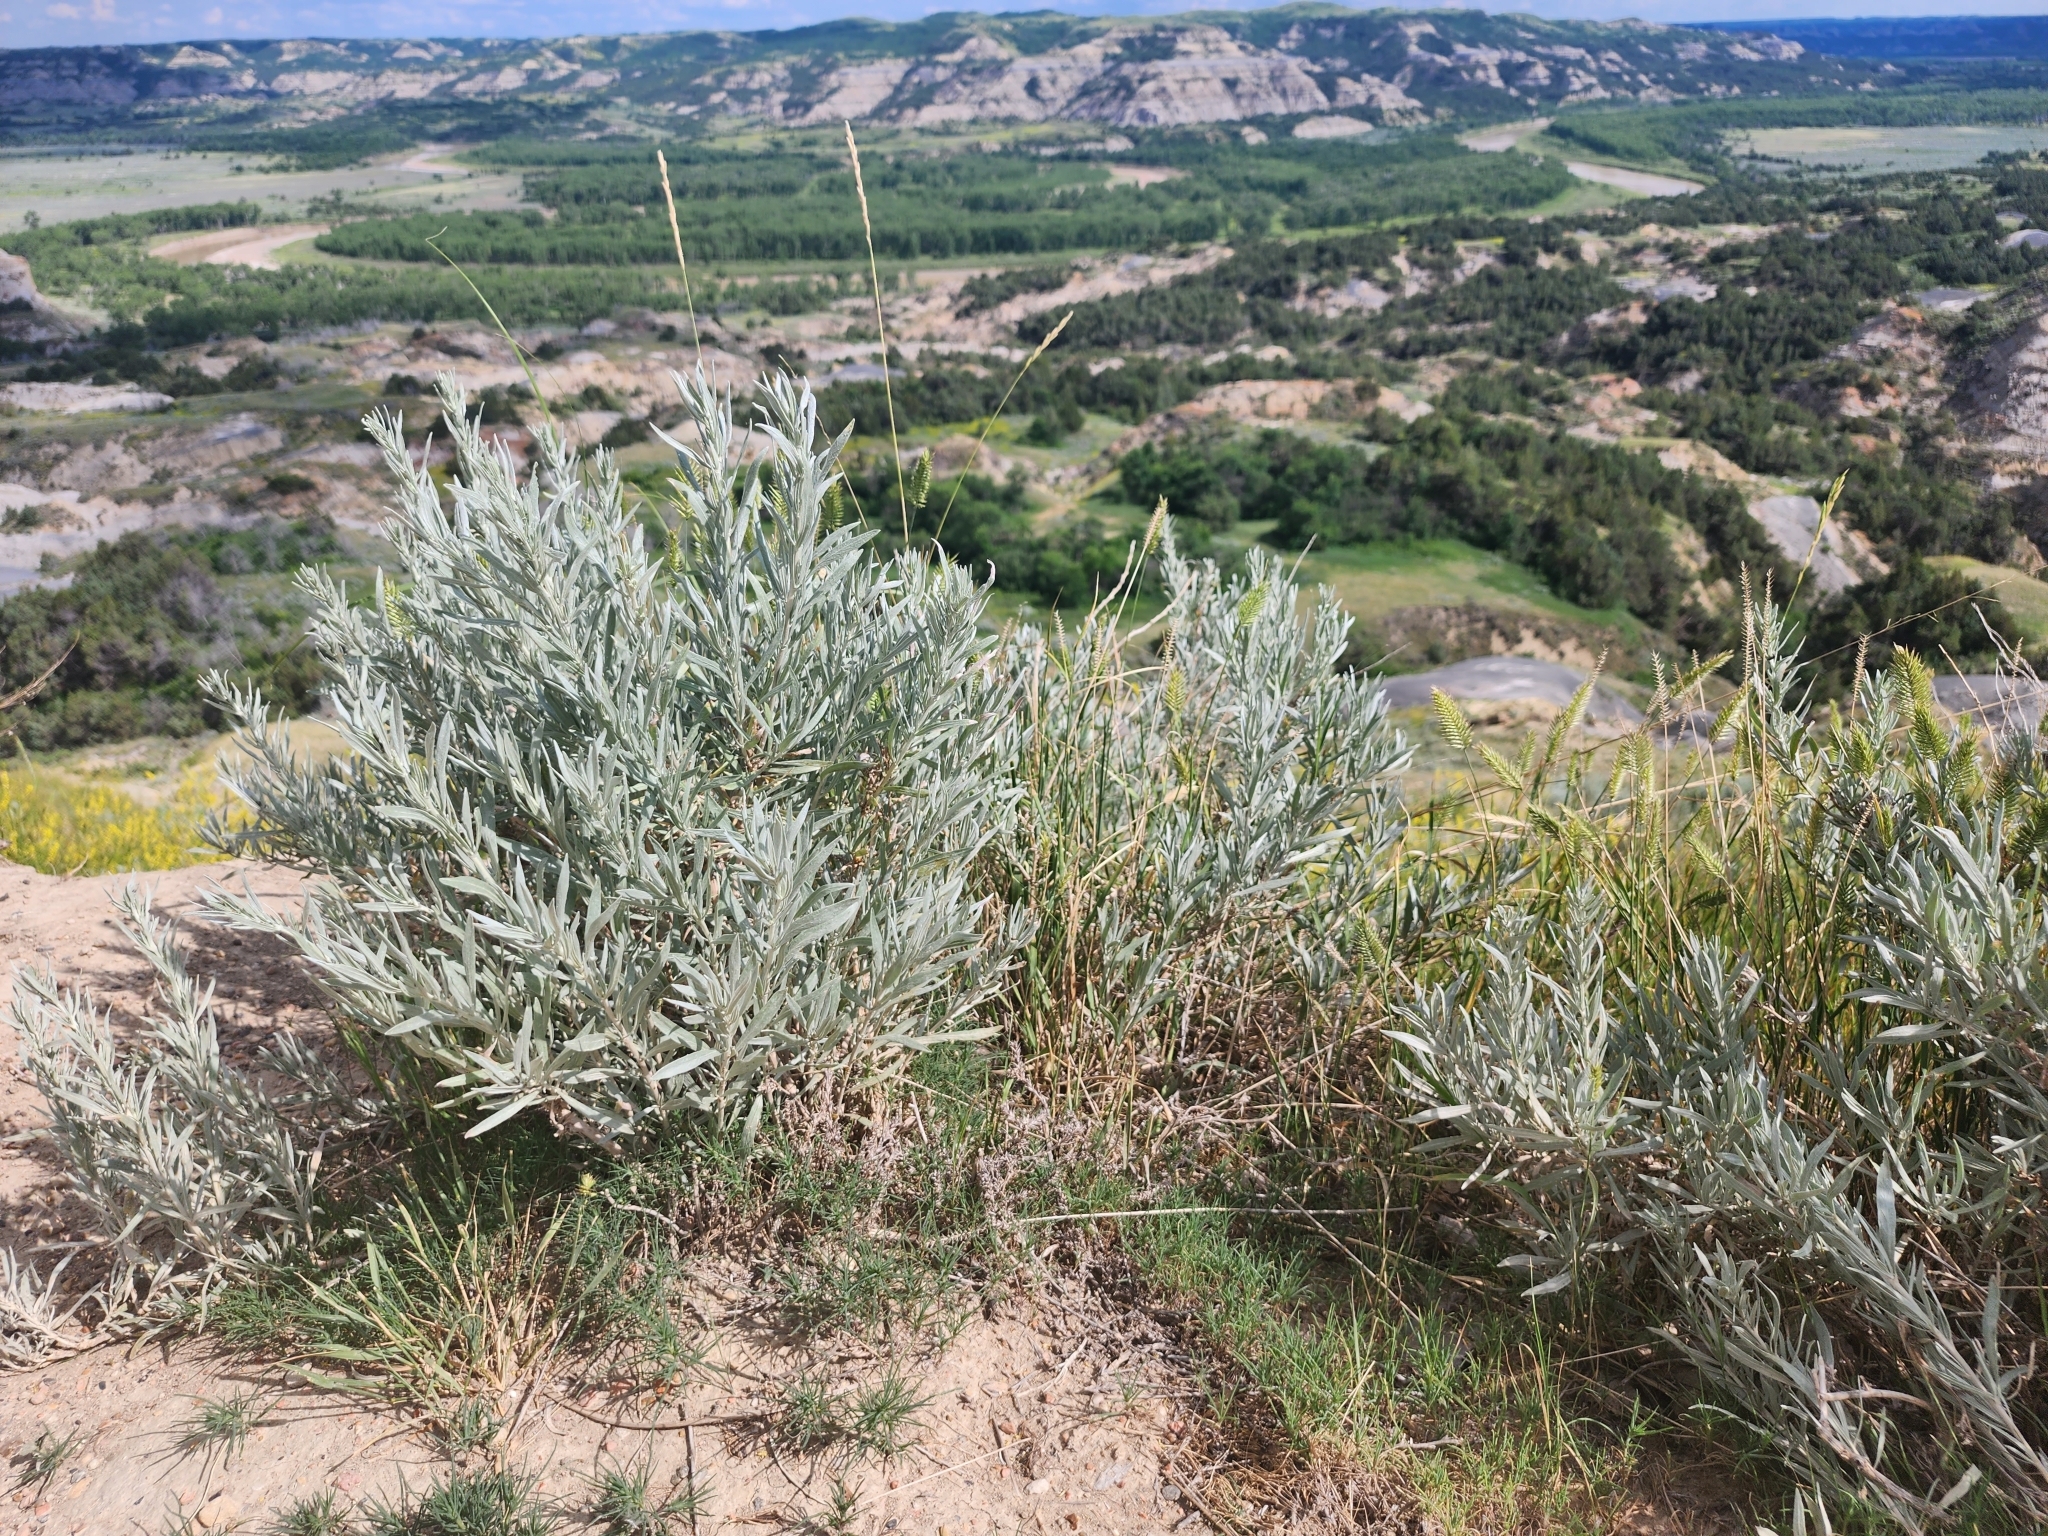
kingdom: Plantae
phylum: Tracheophyta
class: Magnoliopsida
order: Asterales
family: Asteraceae
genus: Artemisia
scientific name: Artemisia cana
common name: Silver sagebrush
